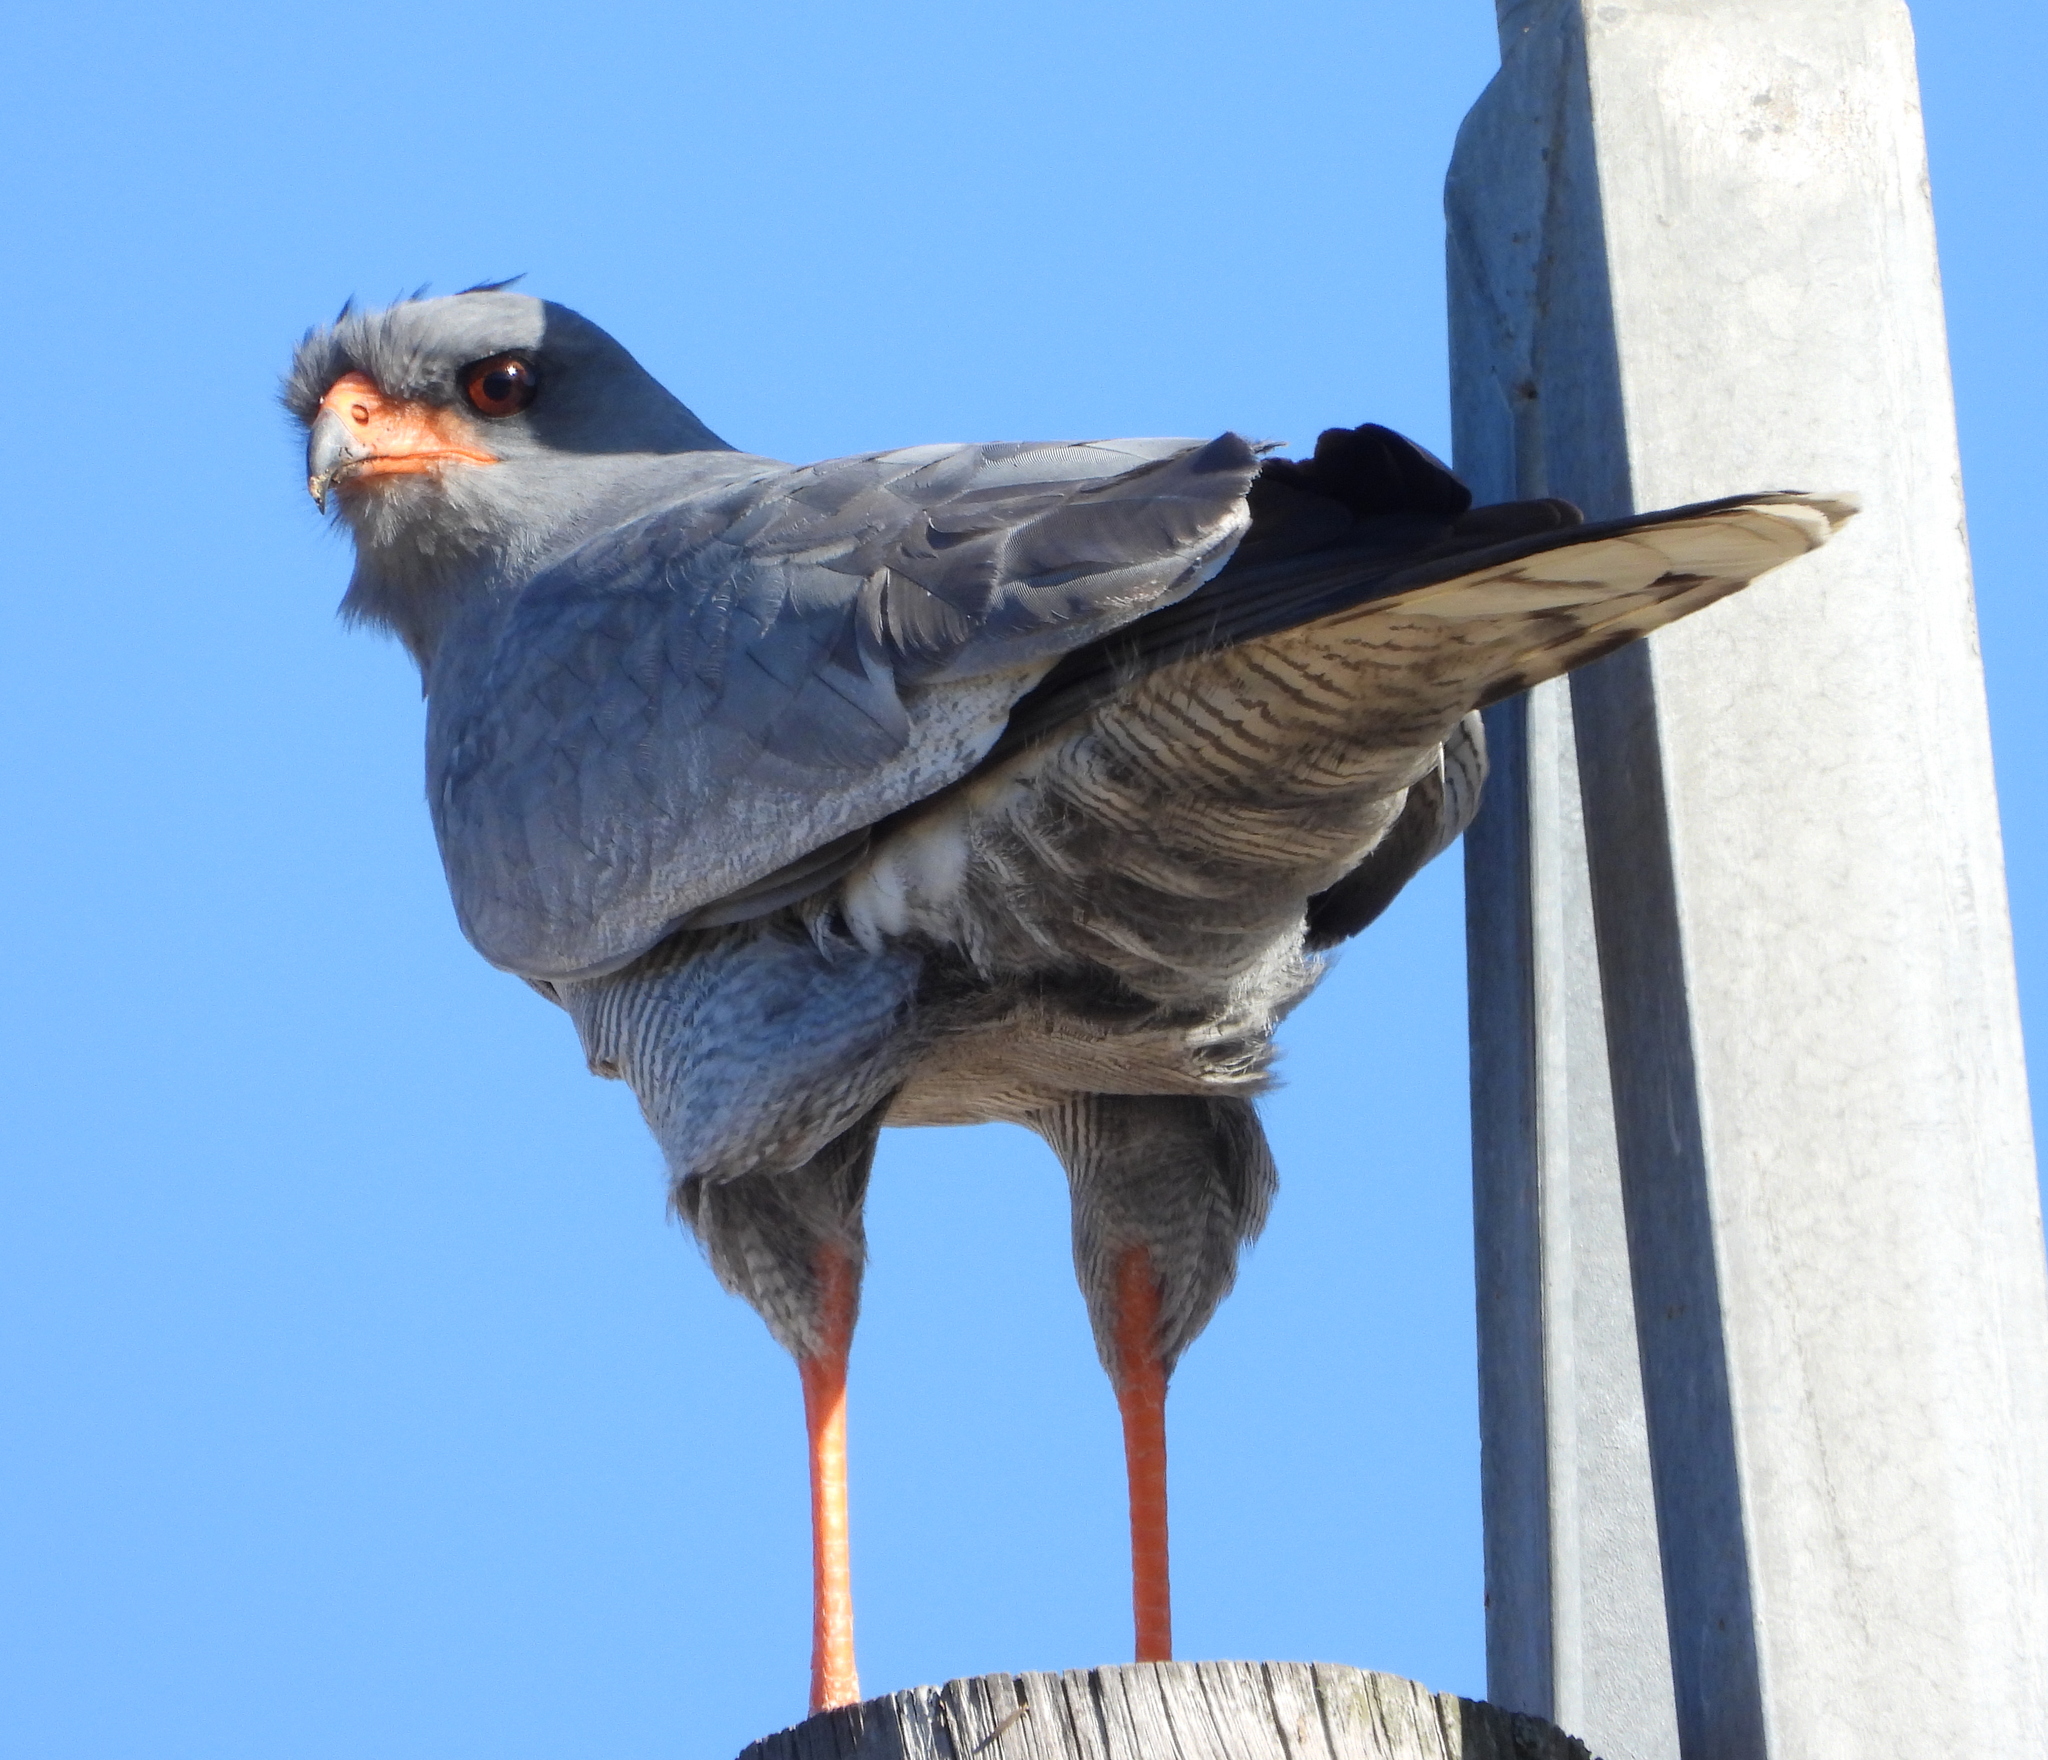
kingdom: Animalia
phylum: Chordata
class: Aves
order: Accipitriformes
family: Accipitridae
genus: Melierax
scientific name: Melierax canorus
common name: Pale chanting-goshawk
